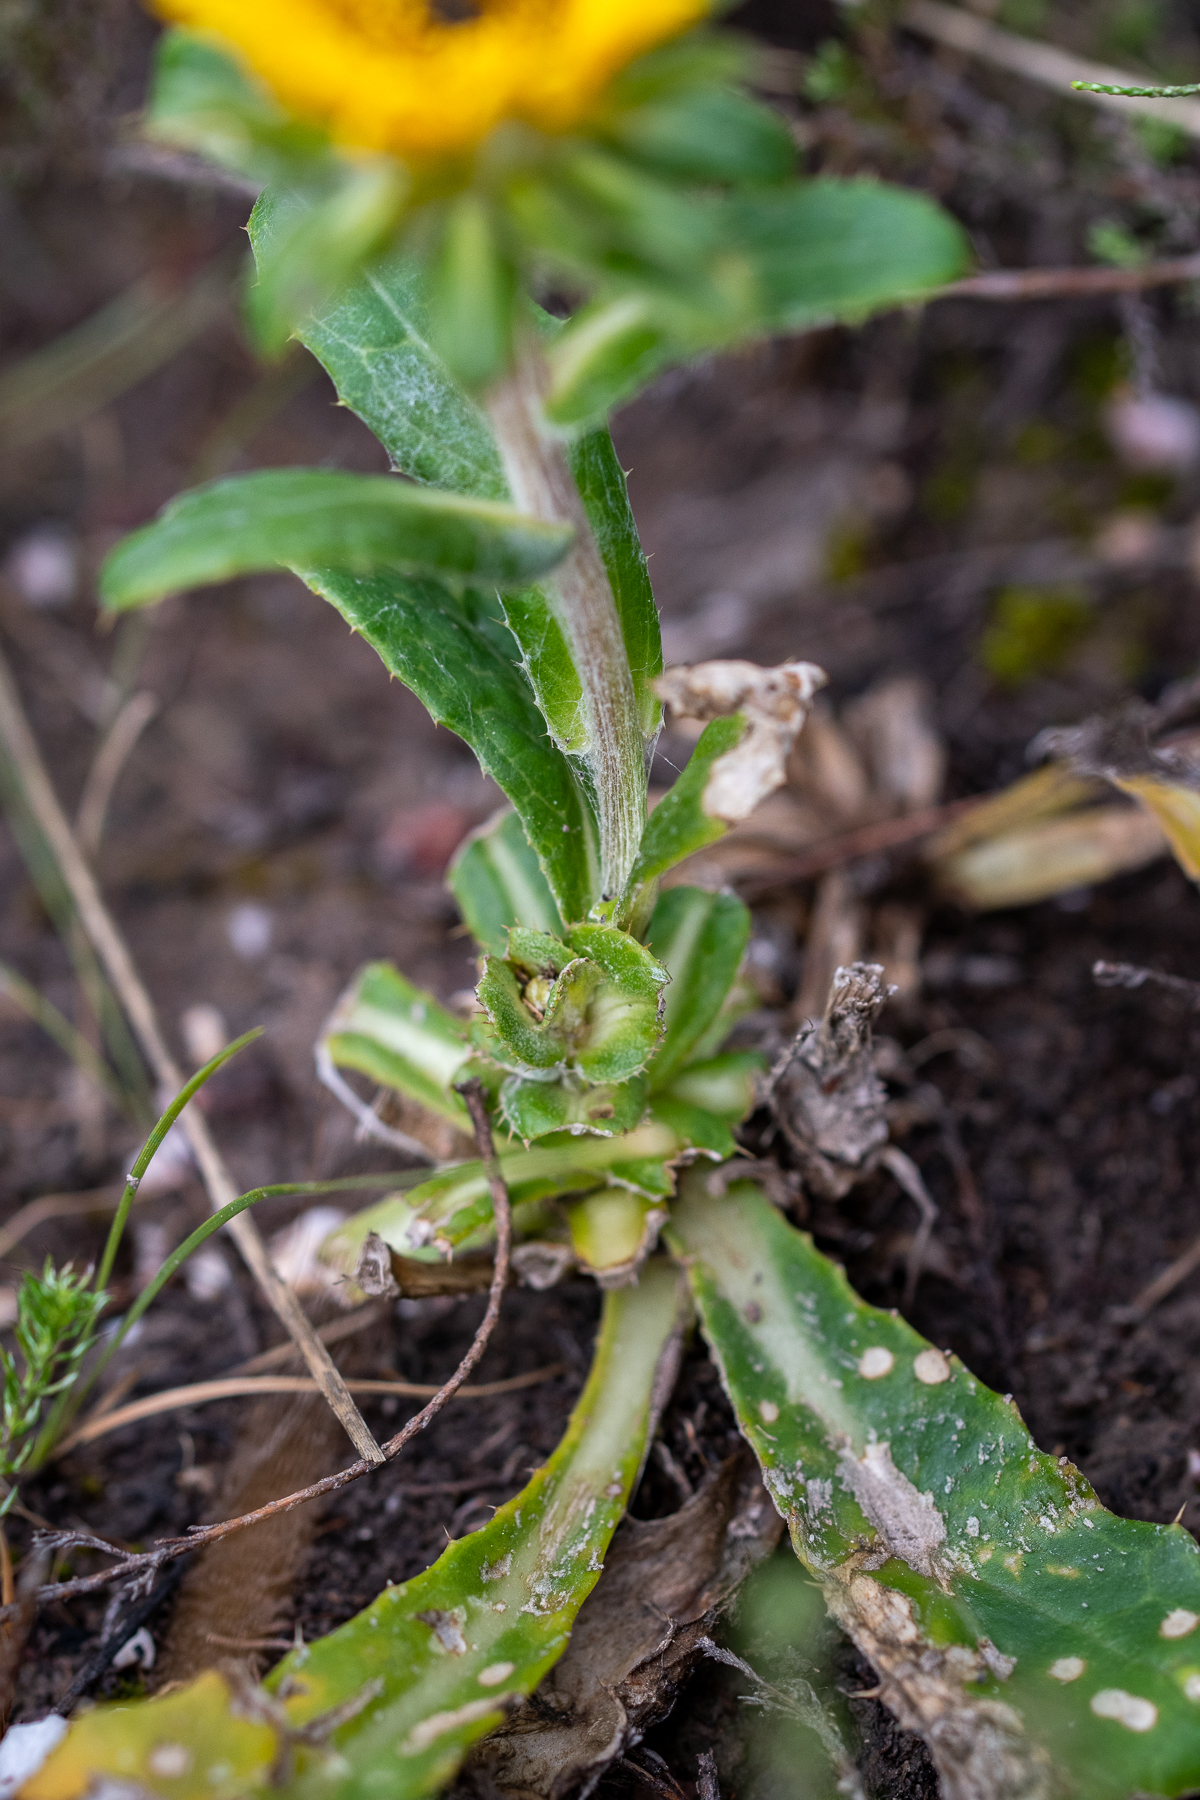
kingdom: Plantae
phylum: Tracheophyta
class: Magnoliopsida
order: Asterales
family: Asteraceae
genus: Berkheya
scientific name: Berkheya herbacea
